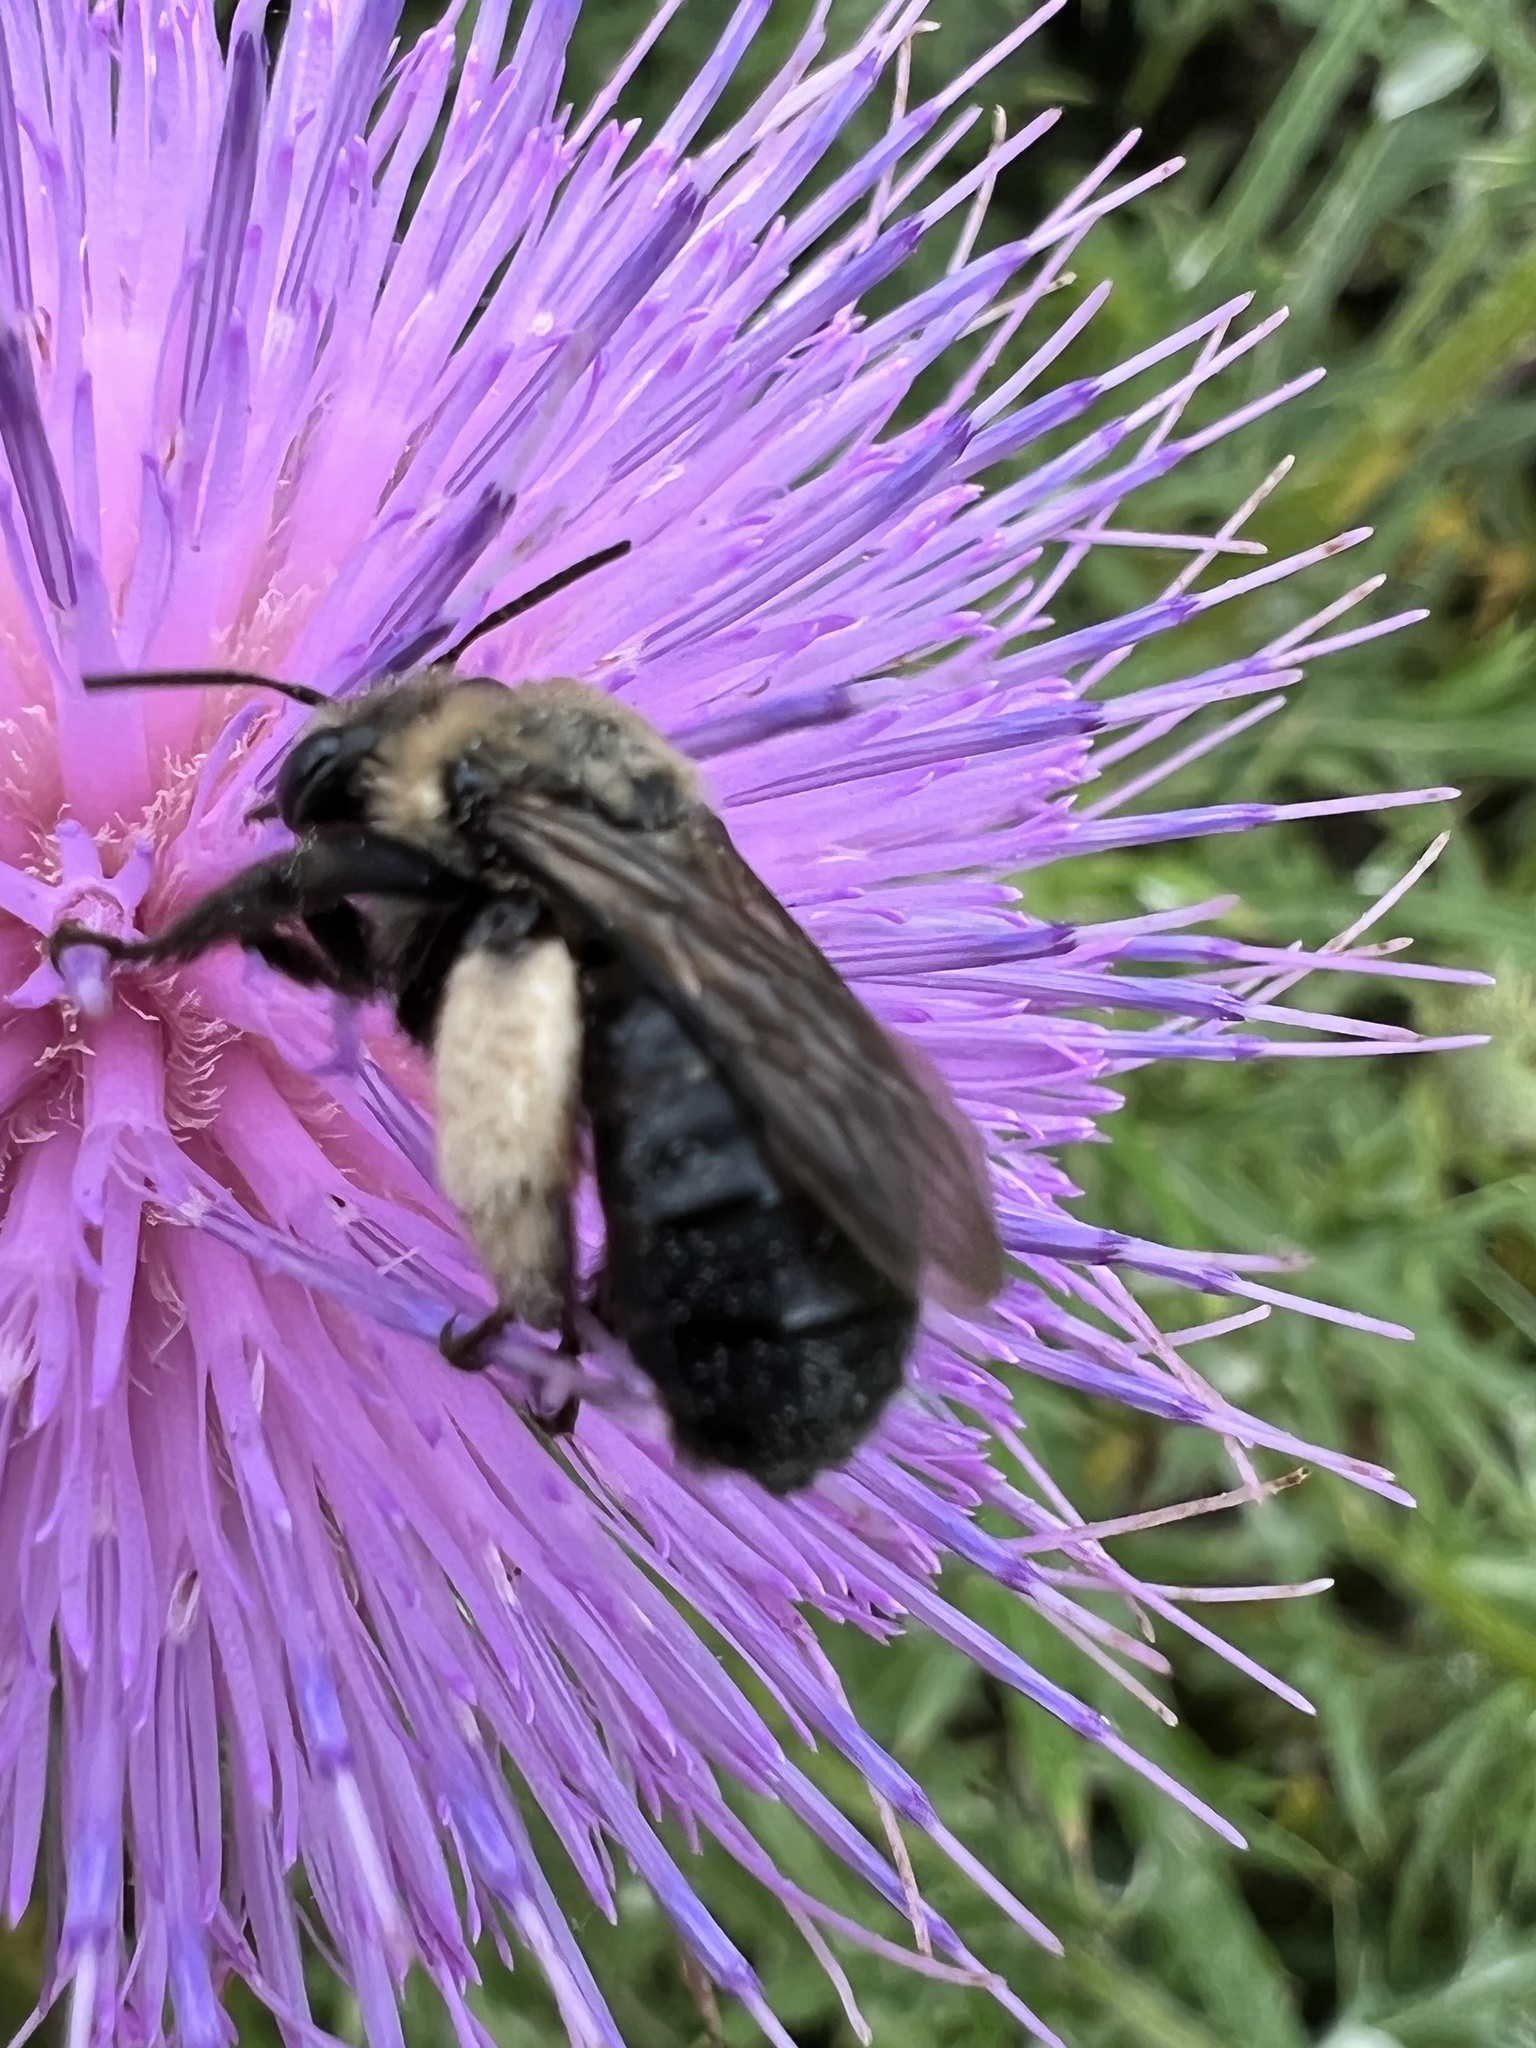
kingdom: Animalia
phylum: Arthropoda
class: Insecta
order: Hymenoptera
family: Apidae
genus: Melissodes
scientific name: Melissodes desponsus
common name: Thistle long-horned bee
